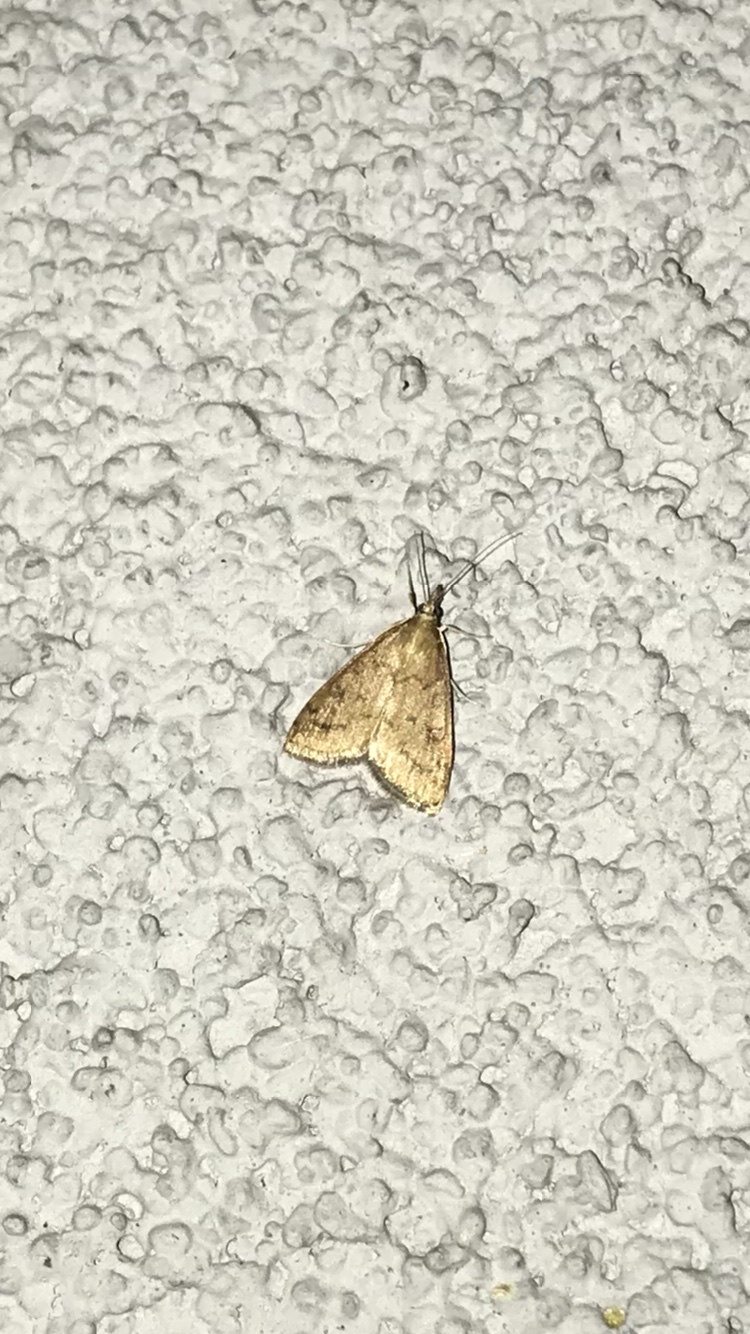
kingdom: Animalia
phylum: Arthropoda
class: Insecta
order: Lepidoptera
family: Crambidae
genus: Udea
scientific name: Udea rubigalis
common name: Celery leaftier moth
